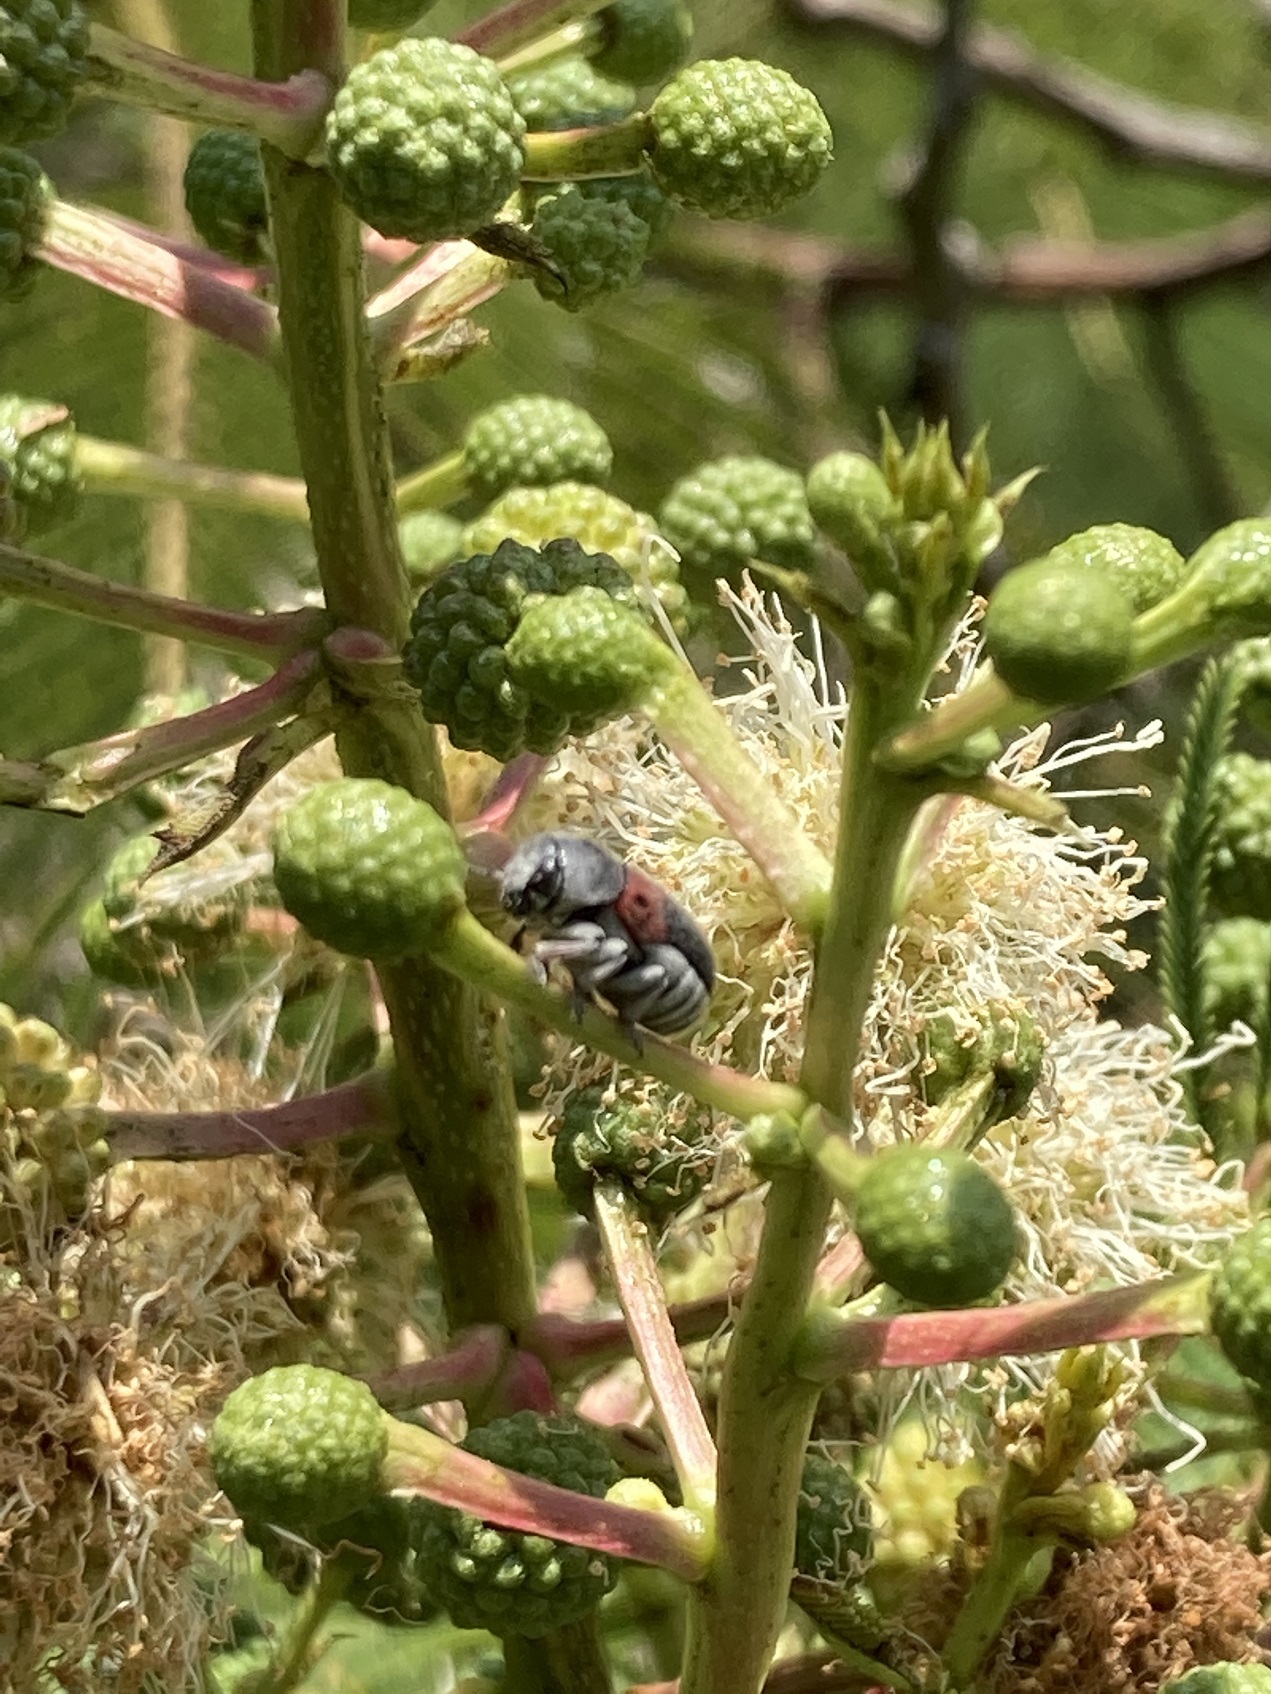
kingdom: Animalia
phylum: Arthropoda
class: Insecta
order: Coleoptera
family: Chrysomelidae
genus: Megalostomis
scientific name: Megalostomis dimidiata
